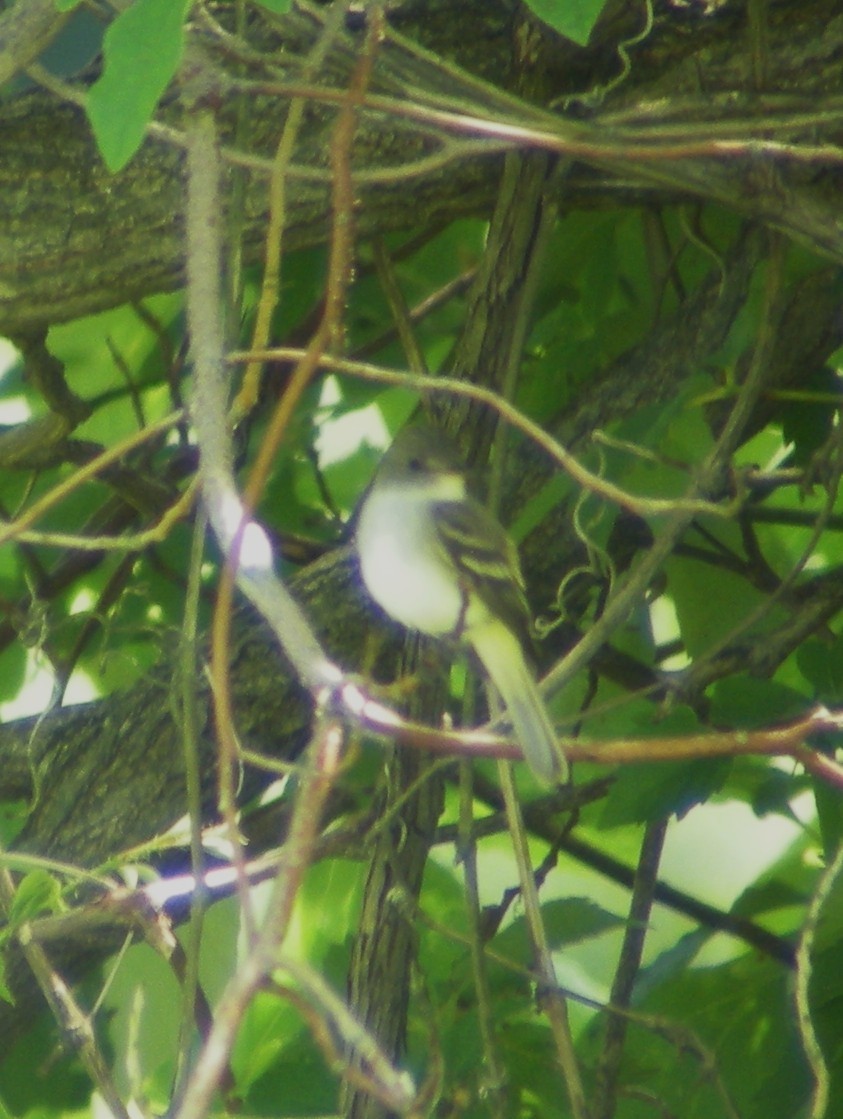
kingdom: Animalia
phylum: Chordata
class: Aves
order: Passeriformes
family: Tyrannidae
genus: Empidonax
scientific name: Empidonax traillii
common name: Willow flycatcher
